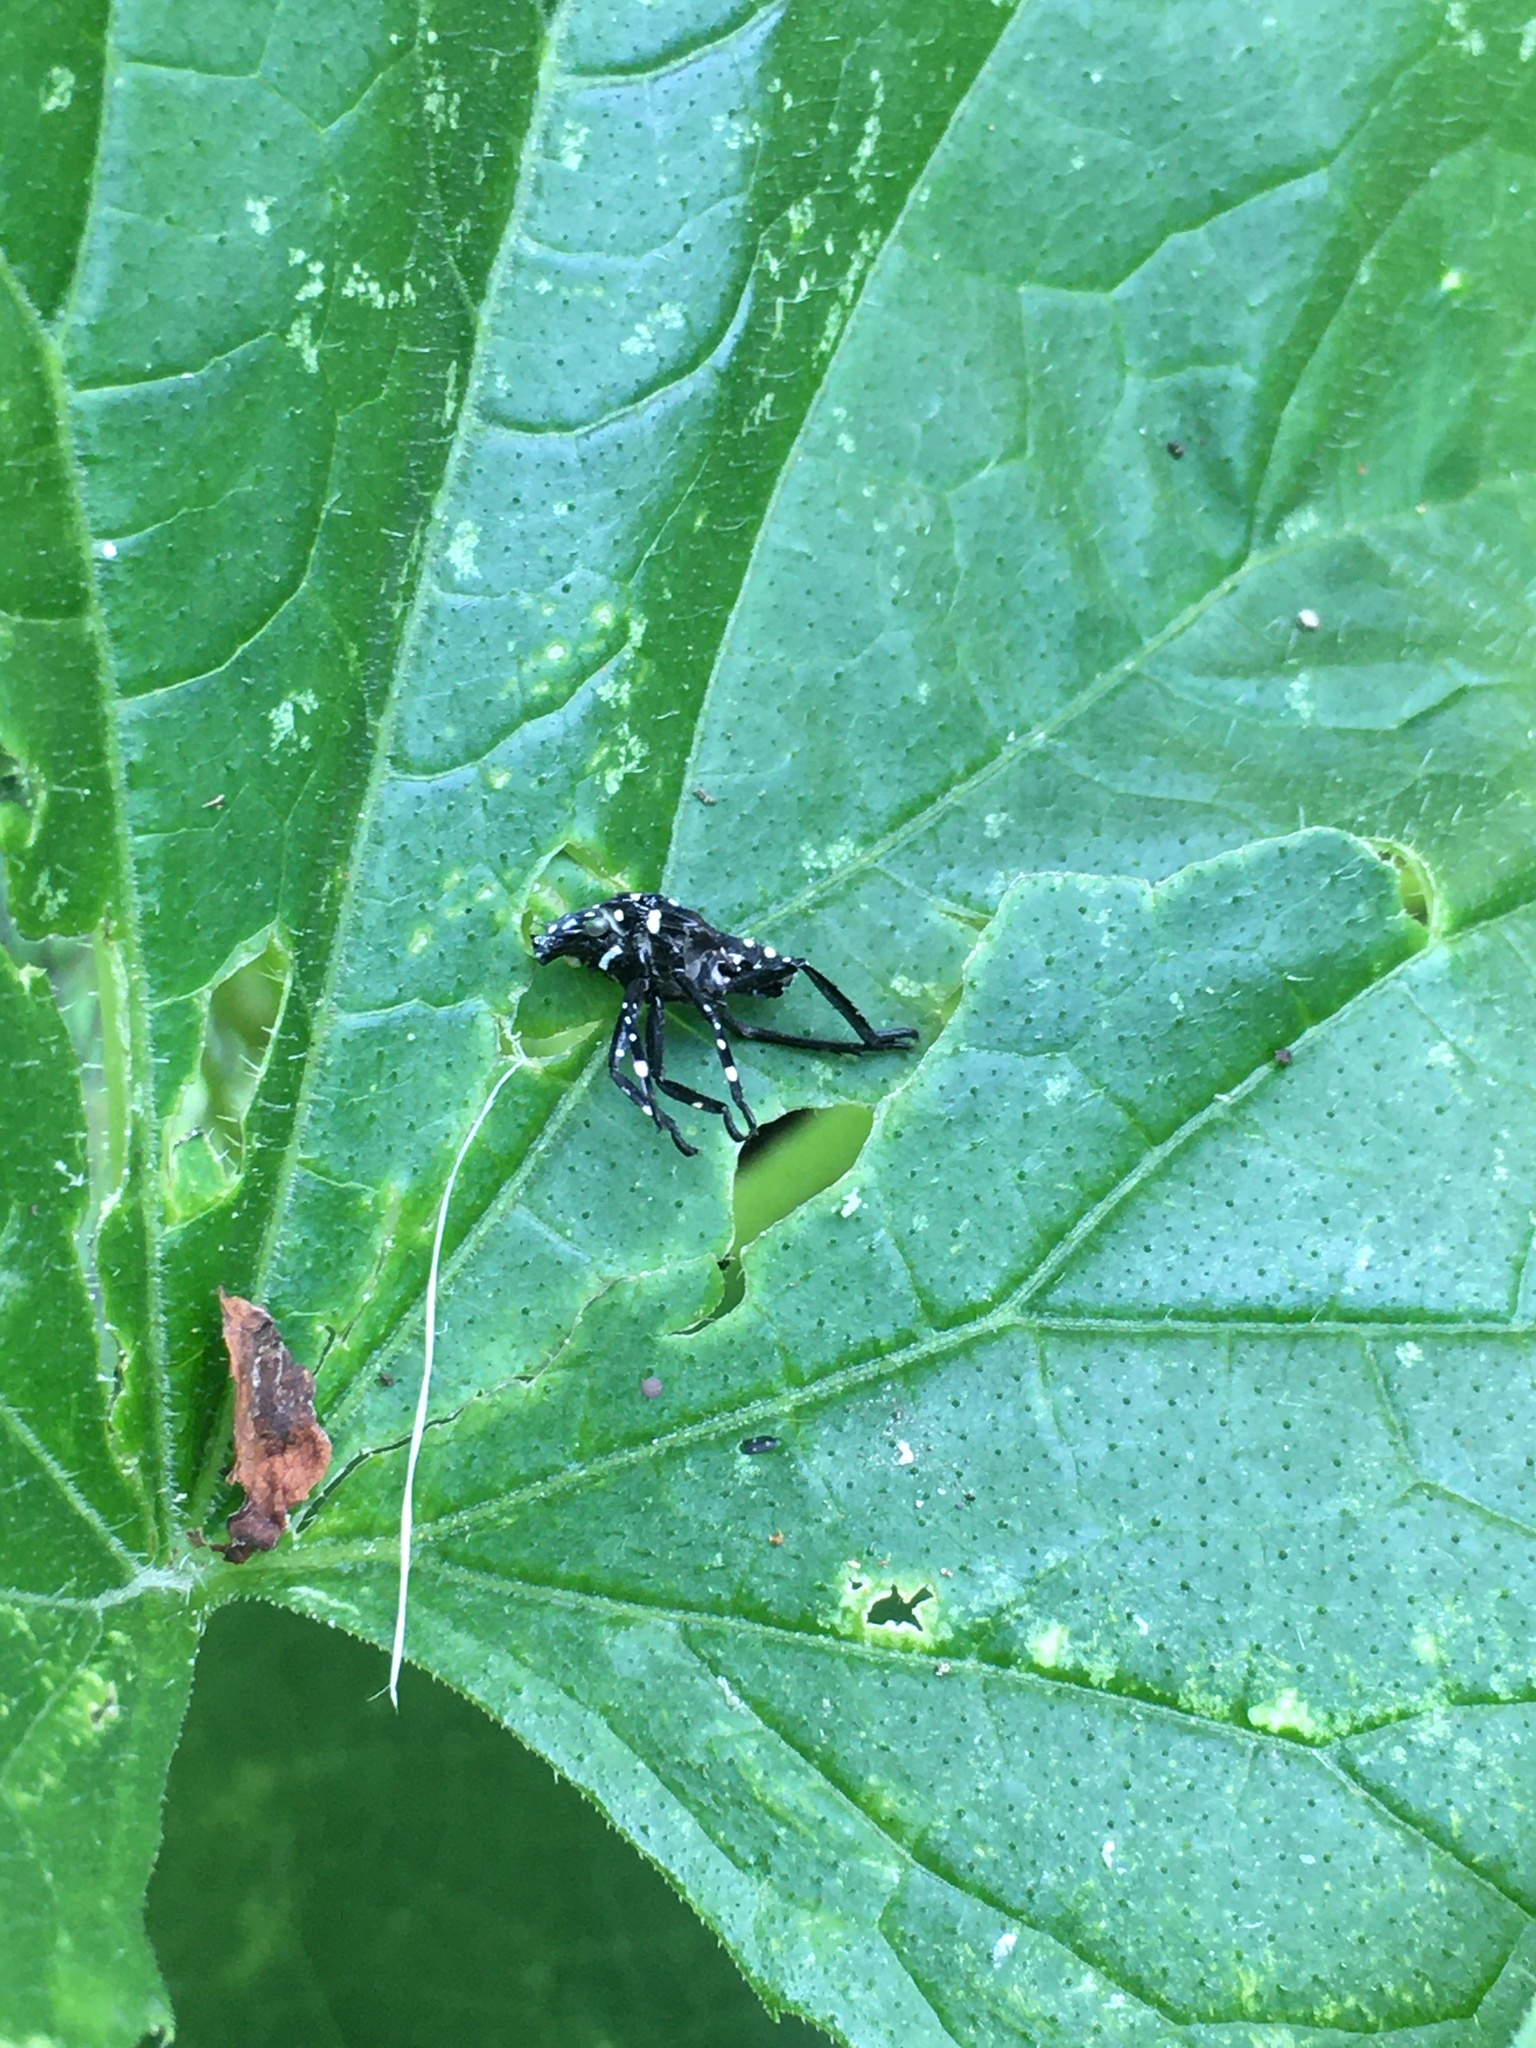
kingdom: Animalia
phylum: Arthropoda
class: Insecta
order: Hemiptera
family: Fulgoridae
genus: Lycorma
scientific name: Lycorma delicatula
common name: Spotted lanternfly
